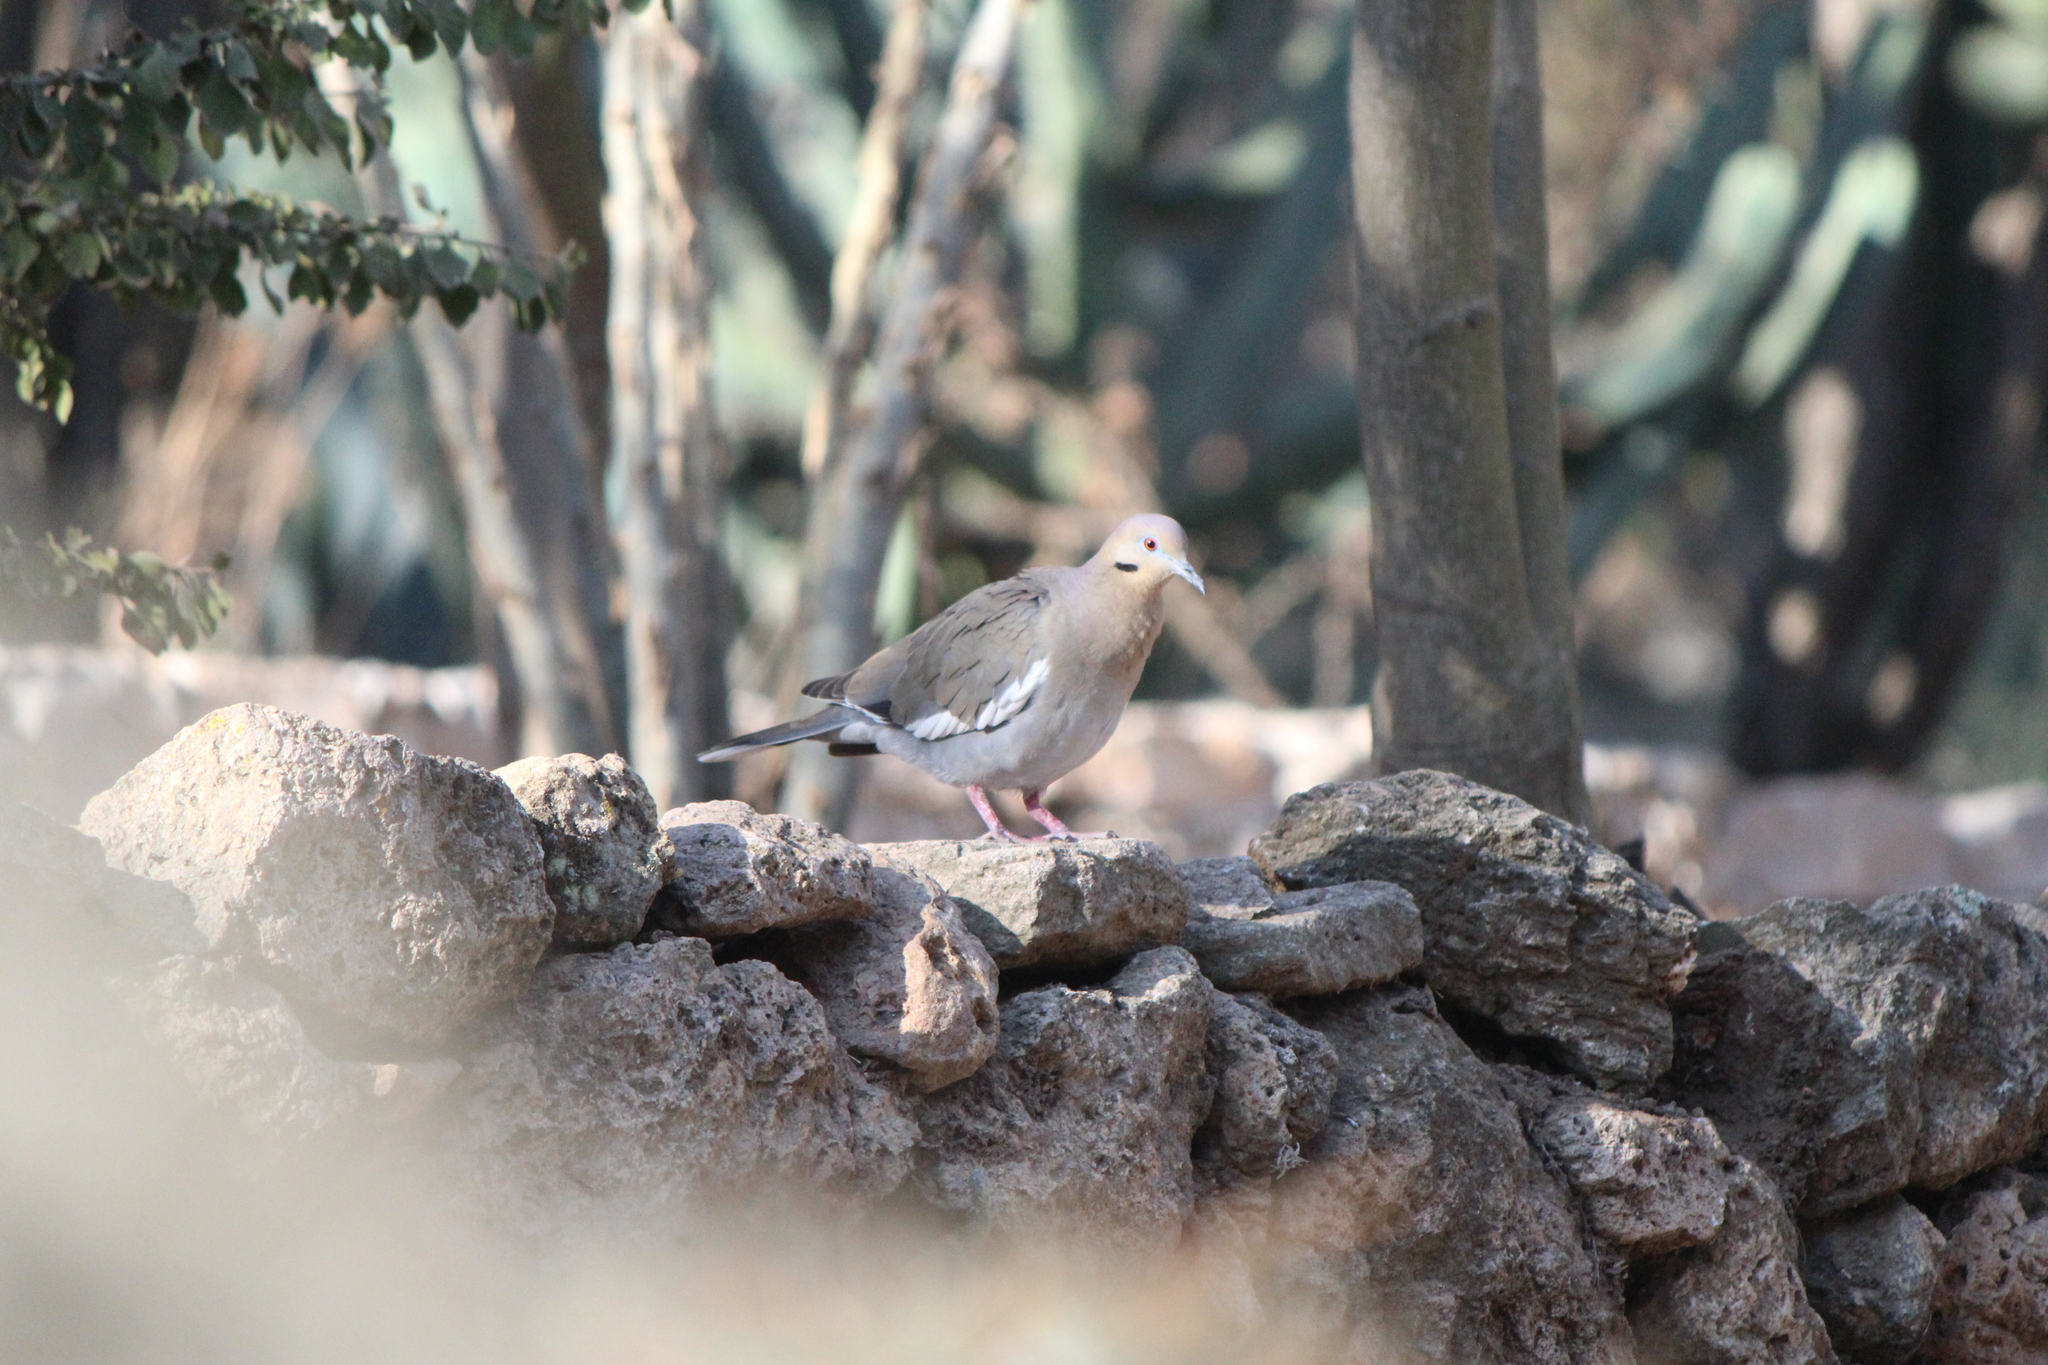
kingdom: Animalia
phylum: Chordata
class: Aves
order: Columbiformes
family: Columbidae
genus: Zenaida
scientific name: Zenaida asiatica
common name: White-winged dove
